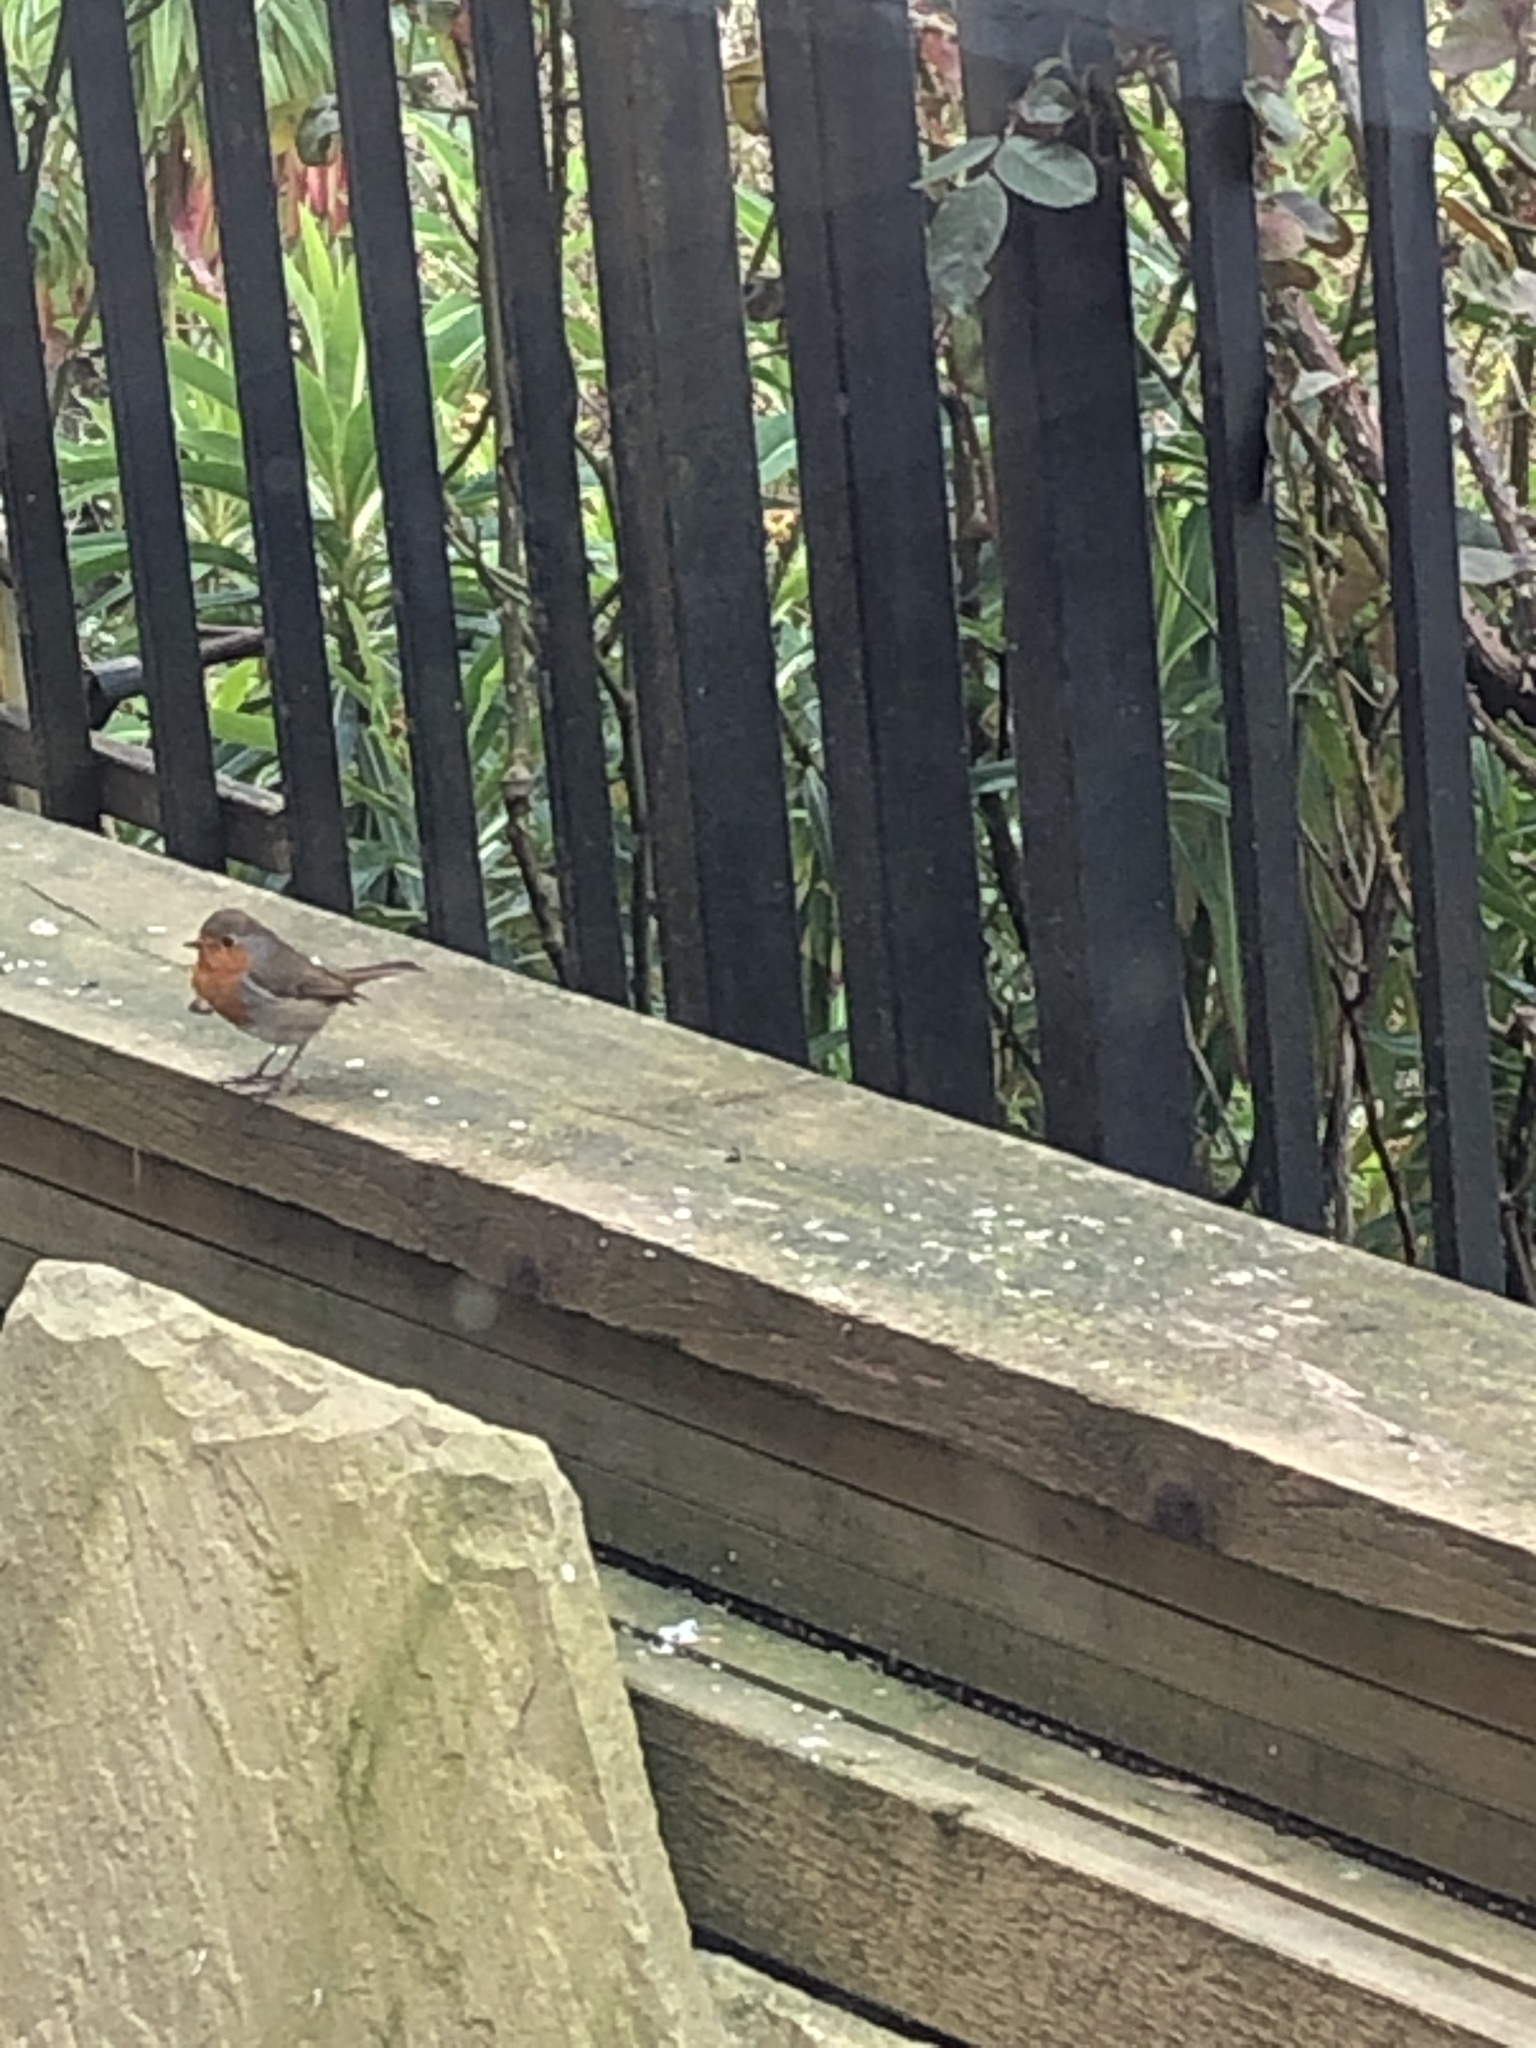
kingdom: Animalia
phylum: Chordata
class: Aves
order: Passeriformes
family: Muscicapidae
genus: Erithacus
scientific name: Erithacus rubecula
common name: European robin
